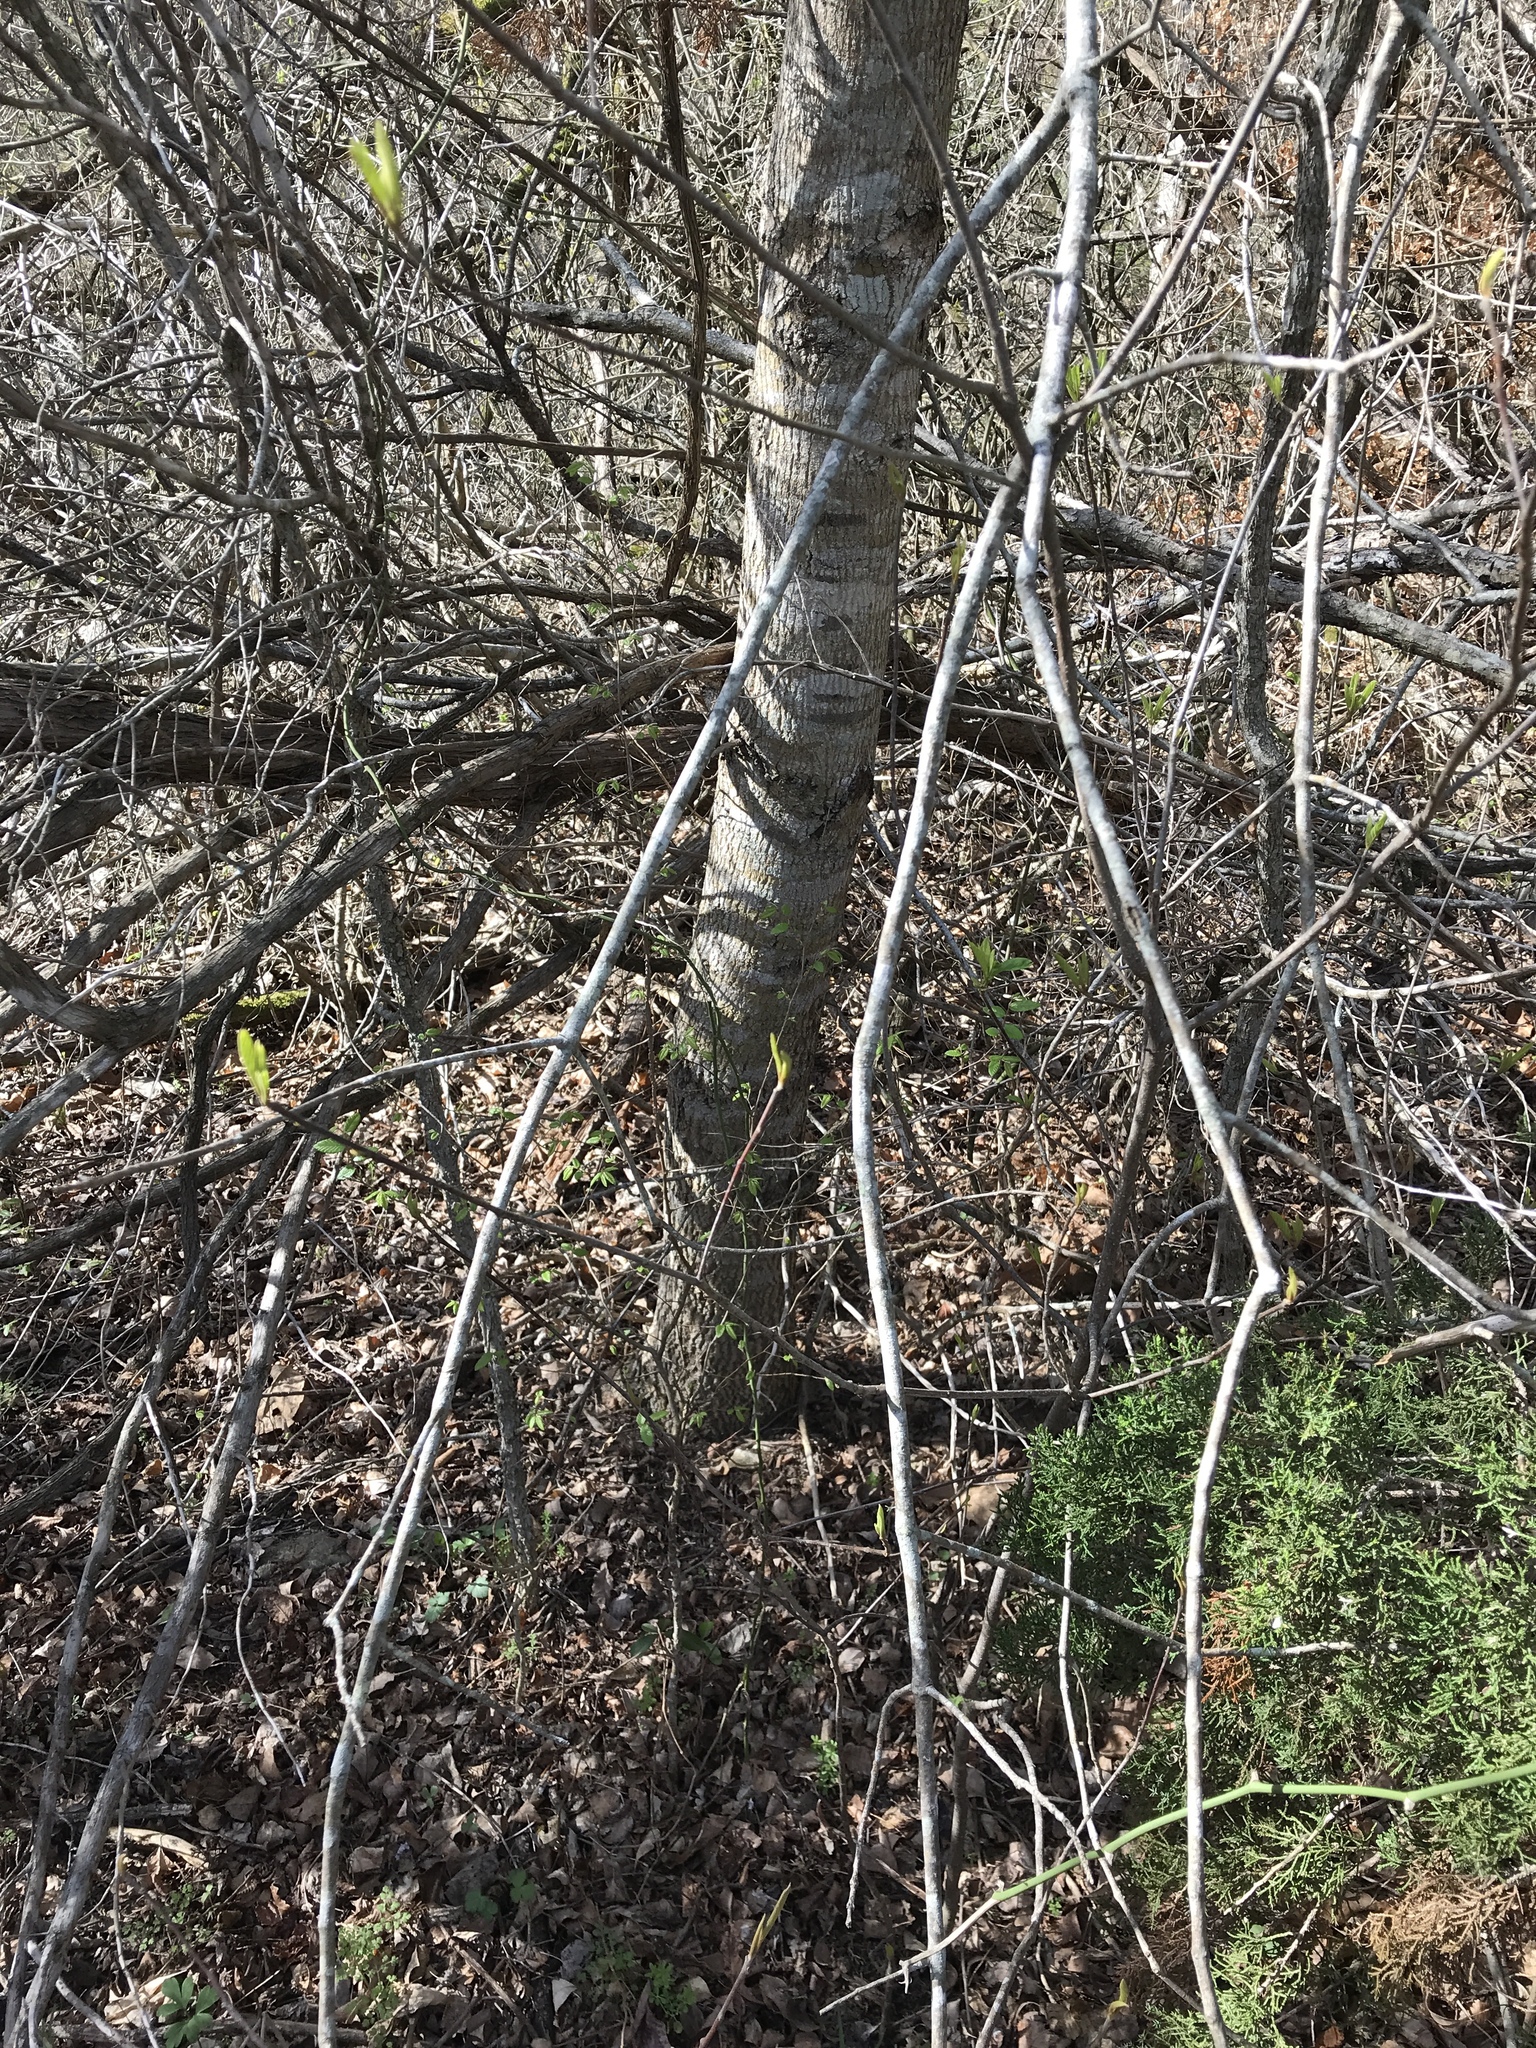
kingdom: Plantae
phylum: Tracheophyta
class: Magnoliopsida
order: Lamiales
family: Oleaceae
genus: Fraxinus
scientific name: Fraxinus albicans
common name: Texas ash
